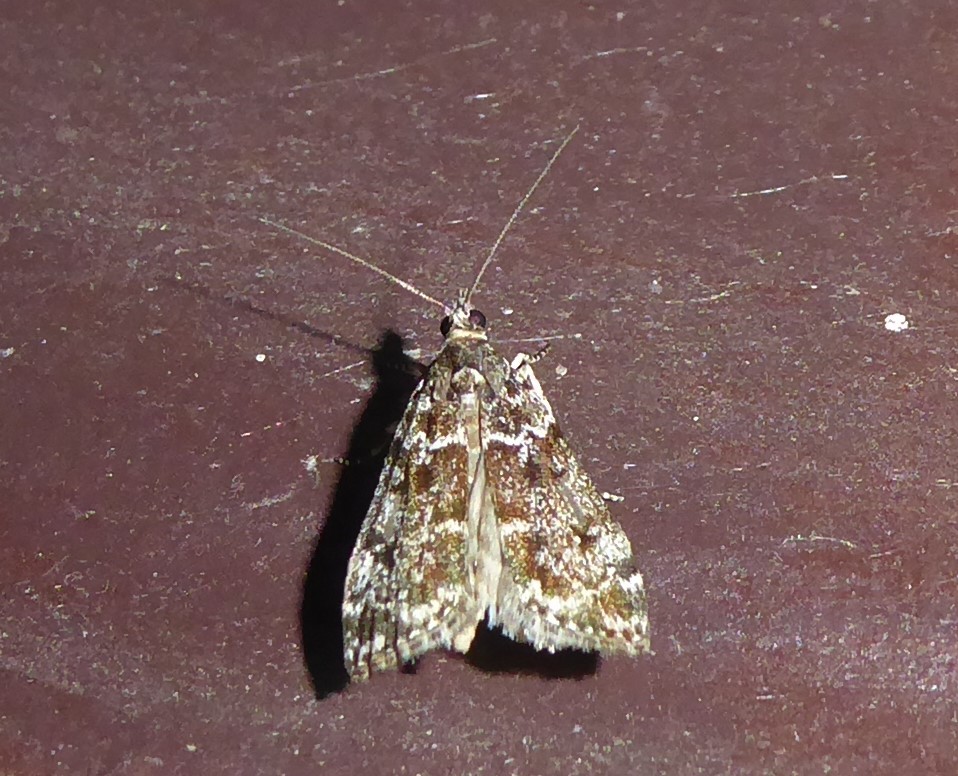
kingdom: Animalia
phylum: Arthropoda
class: Insecta
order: Lepidoptera
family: Crambidae
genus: Eudonia
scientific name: Eudonia philerga
